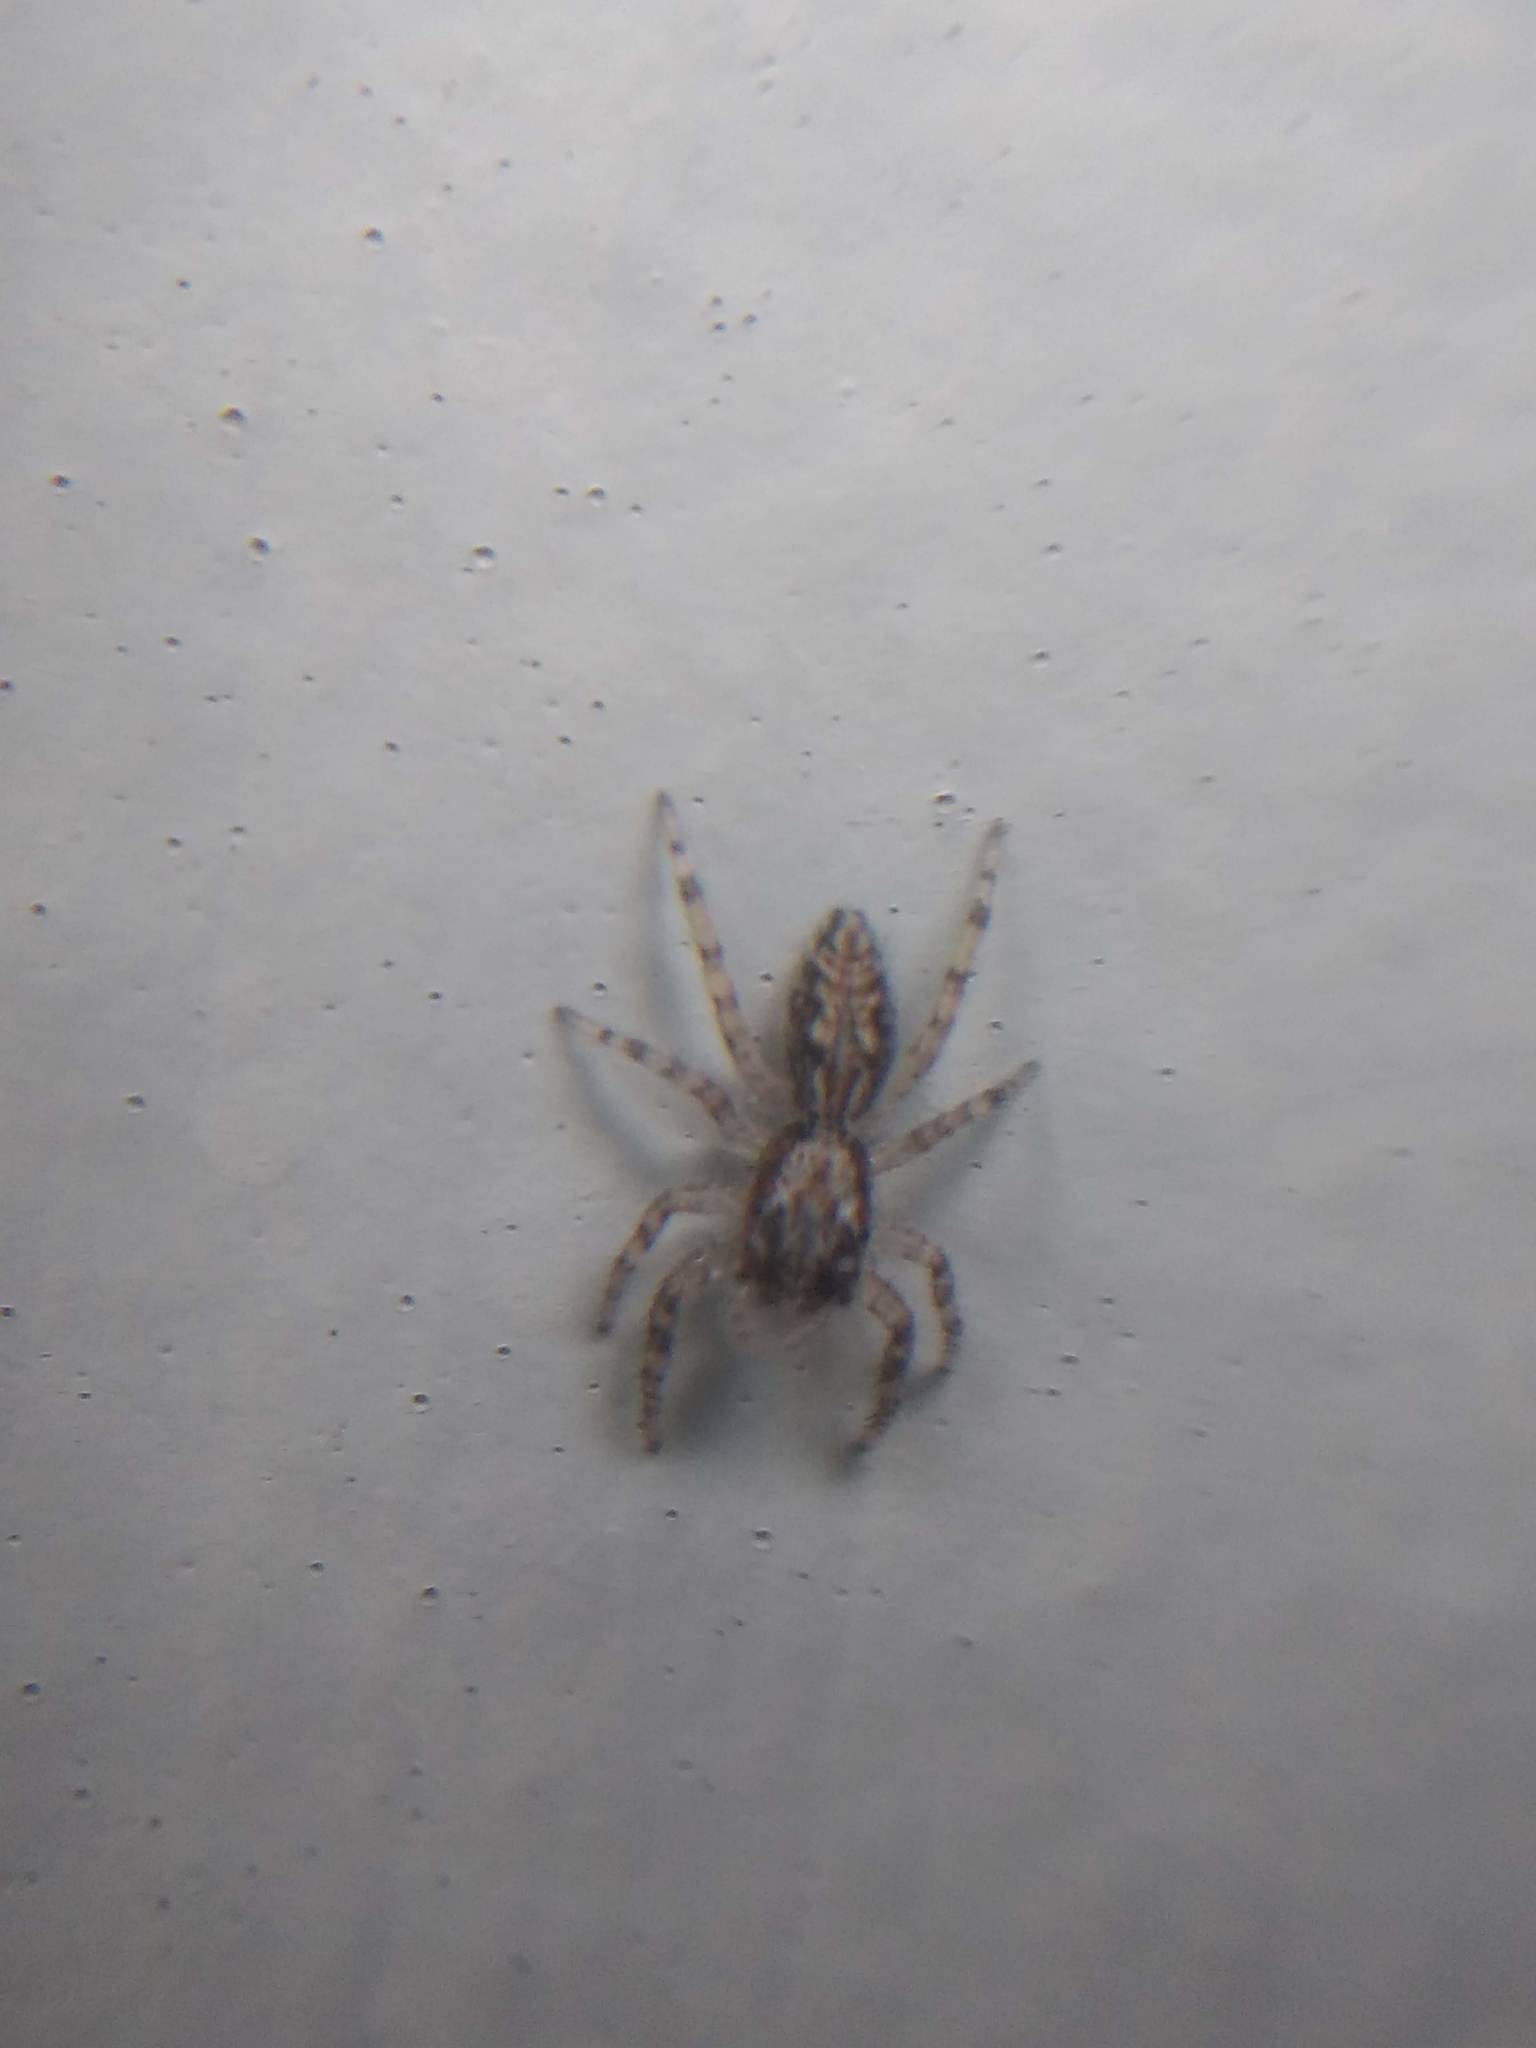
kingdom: Animalia
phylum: Arthropoda
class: Arachnida
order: Araneae
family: Salticidae
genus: Platycryptus
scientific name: Platycryptus californicus
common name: Jumping spiders
